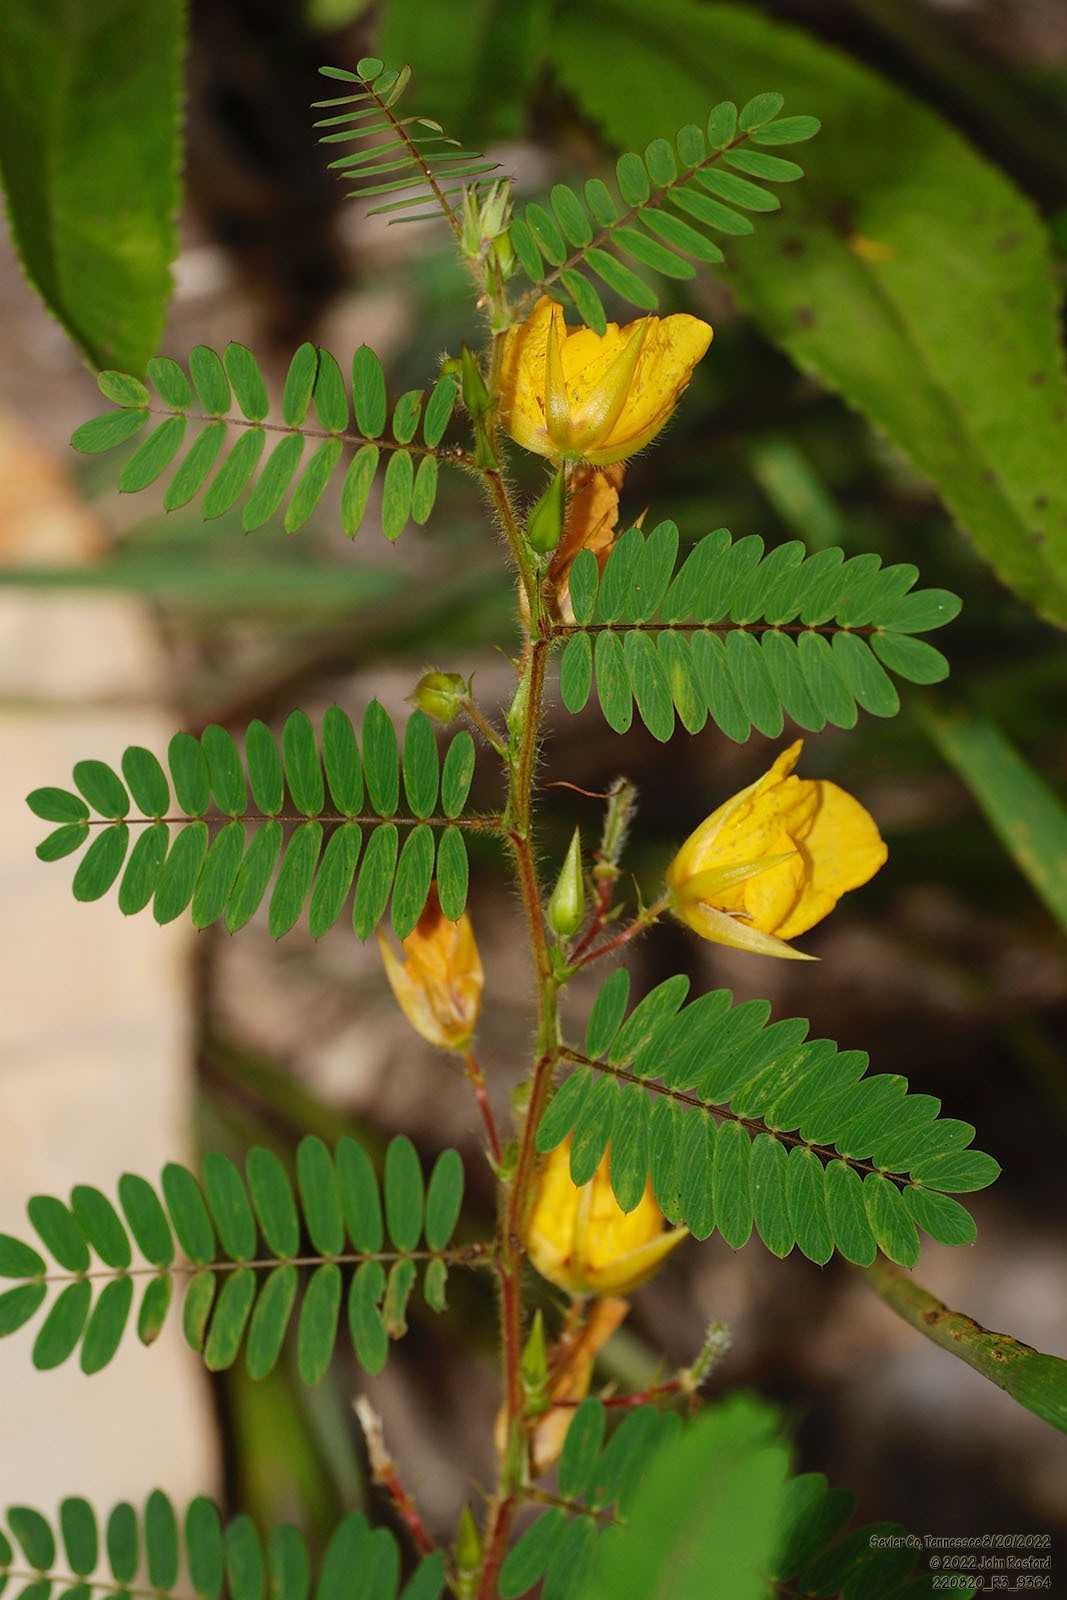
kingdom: Plantae
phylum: Tracheophyta
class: Magnoliopsida
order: Fabales
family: Fabaceae
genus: Chamaecrista
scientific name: Chamaecrista fasciculata
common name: Golden cassia
